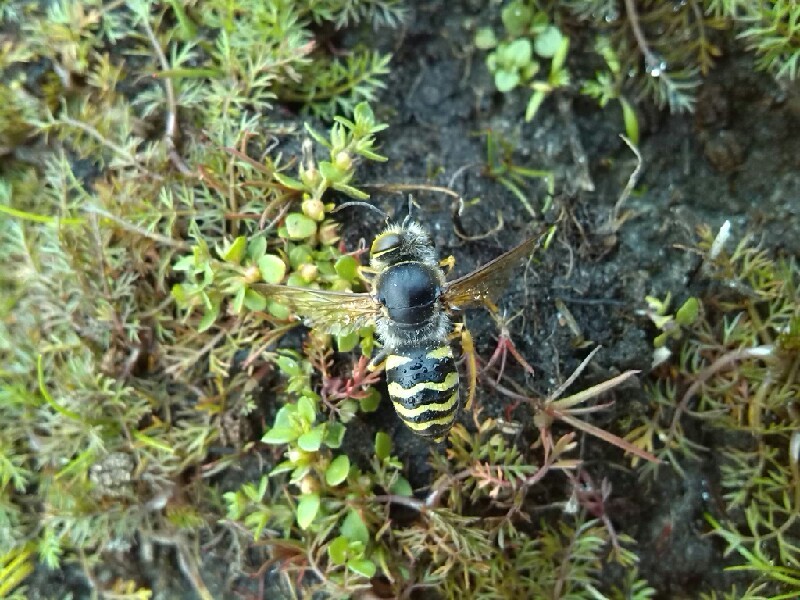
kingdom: Animalia
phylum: Arthropoda
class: Insecta
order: Hymenoptera
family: Crabronidae
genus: Bembix
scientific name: Bembix rostrata
